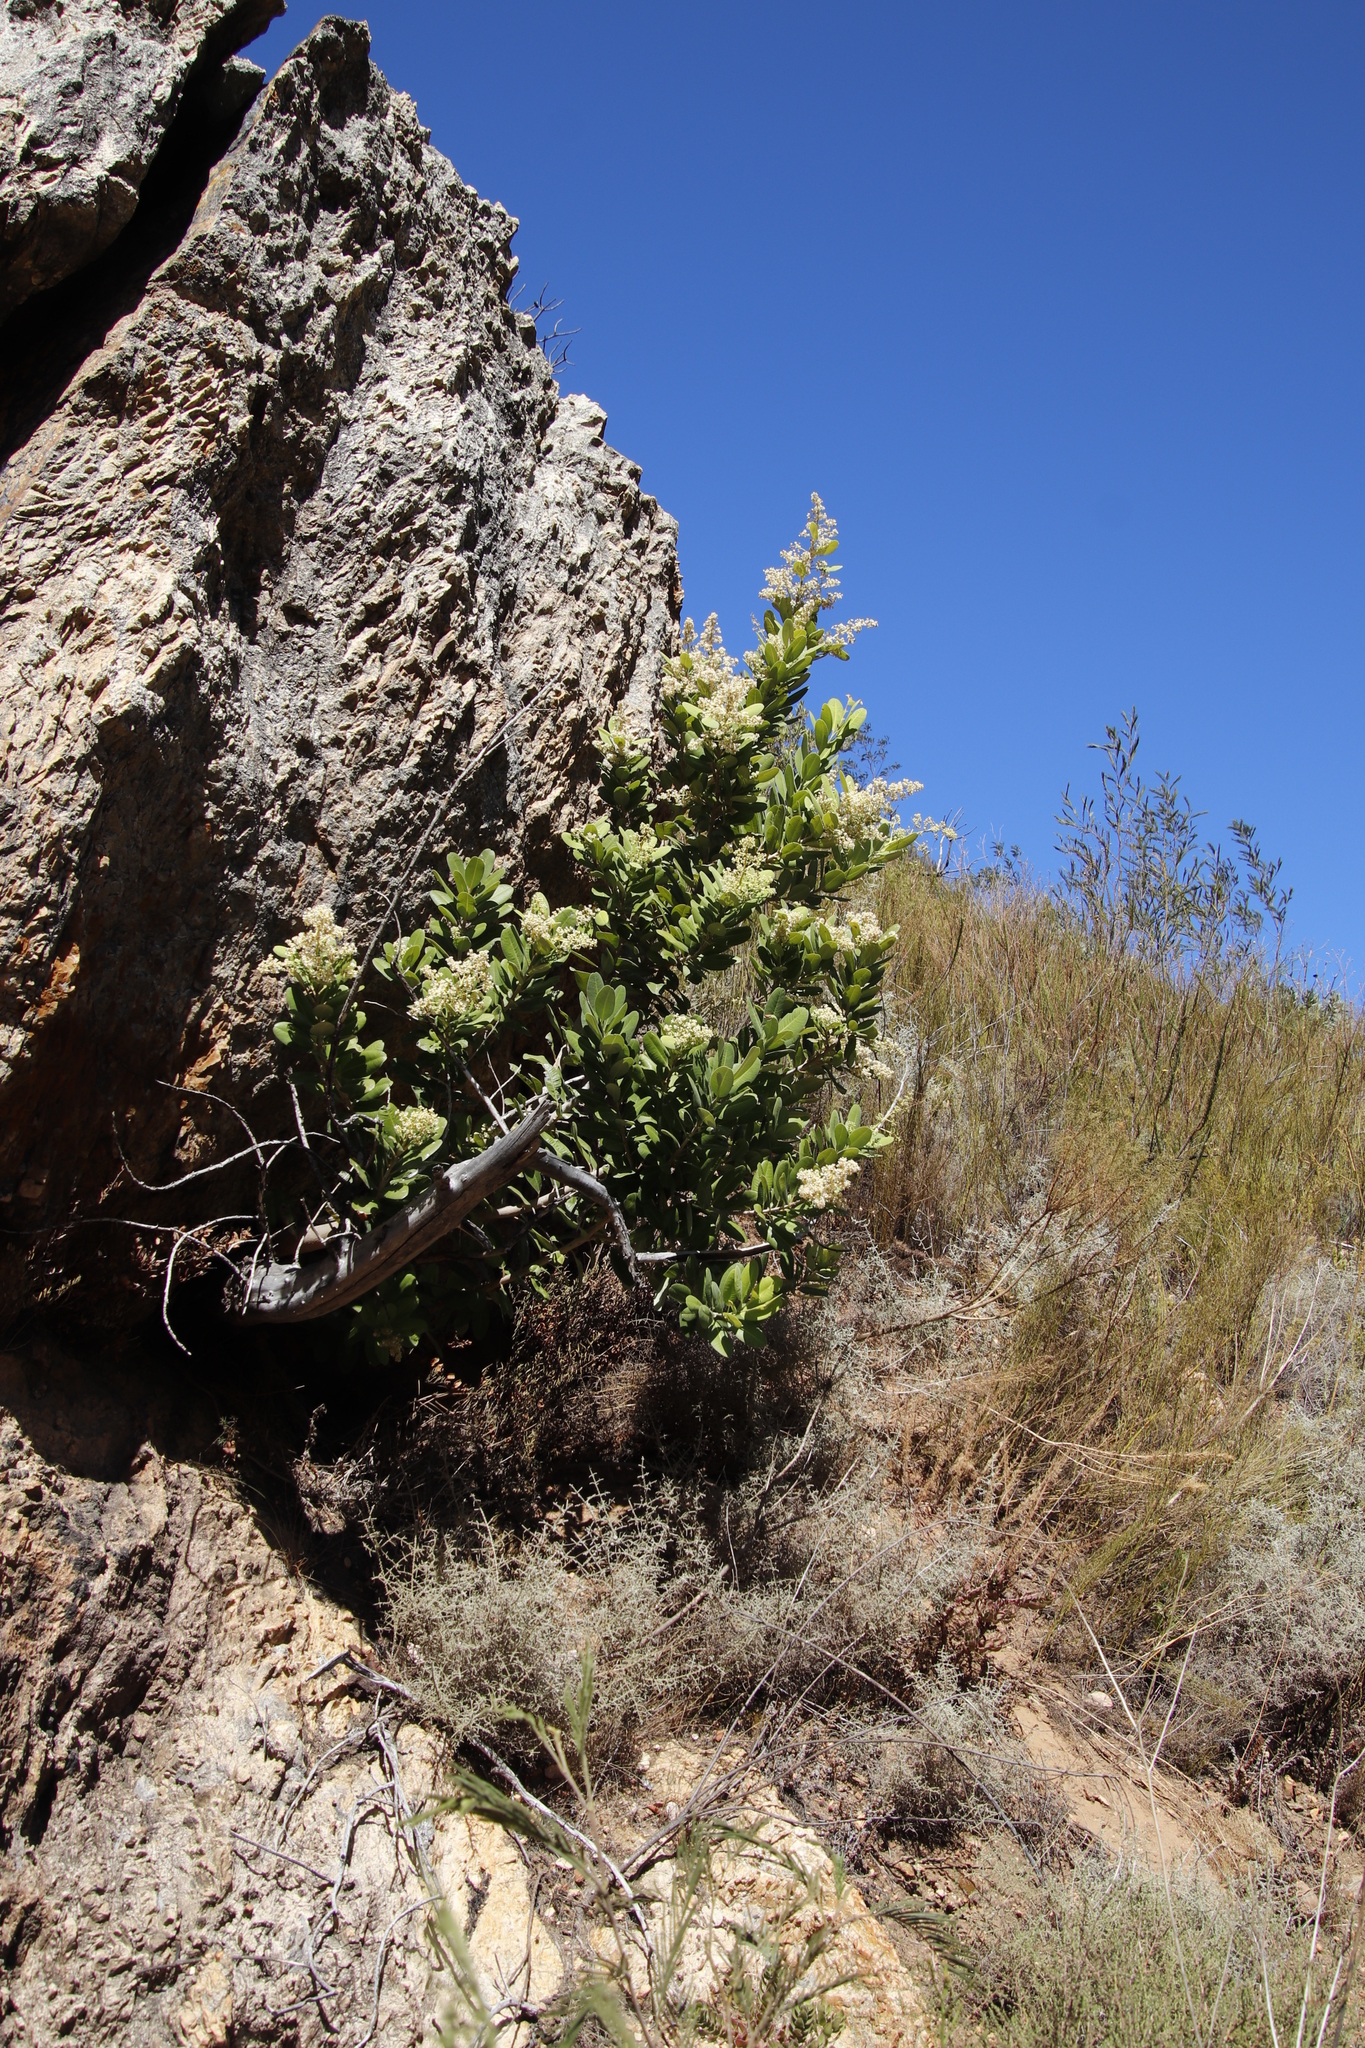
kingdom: Plantae
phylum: Tracheophyta
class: Magnoliopsida
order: Lamiales
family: Oleaceae
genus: Olea
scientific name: Olea capensis
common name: Black ironwood
